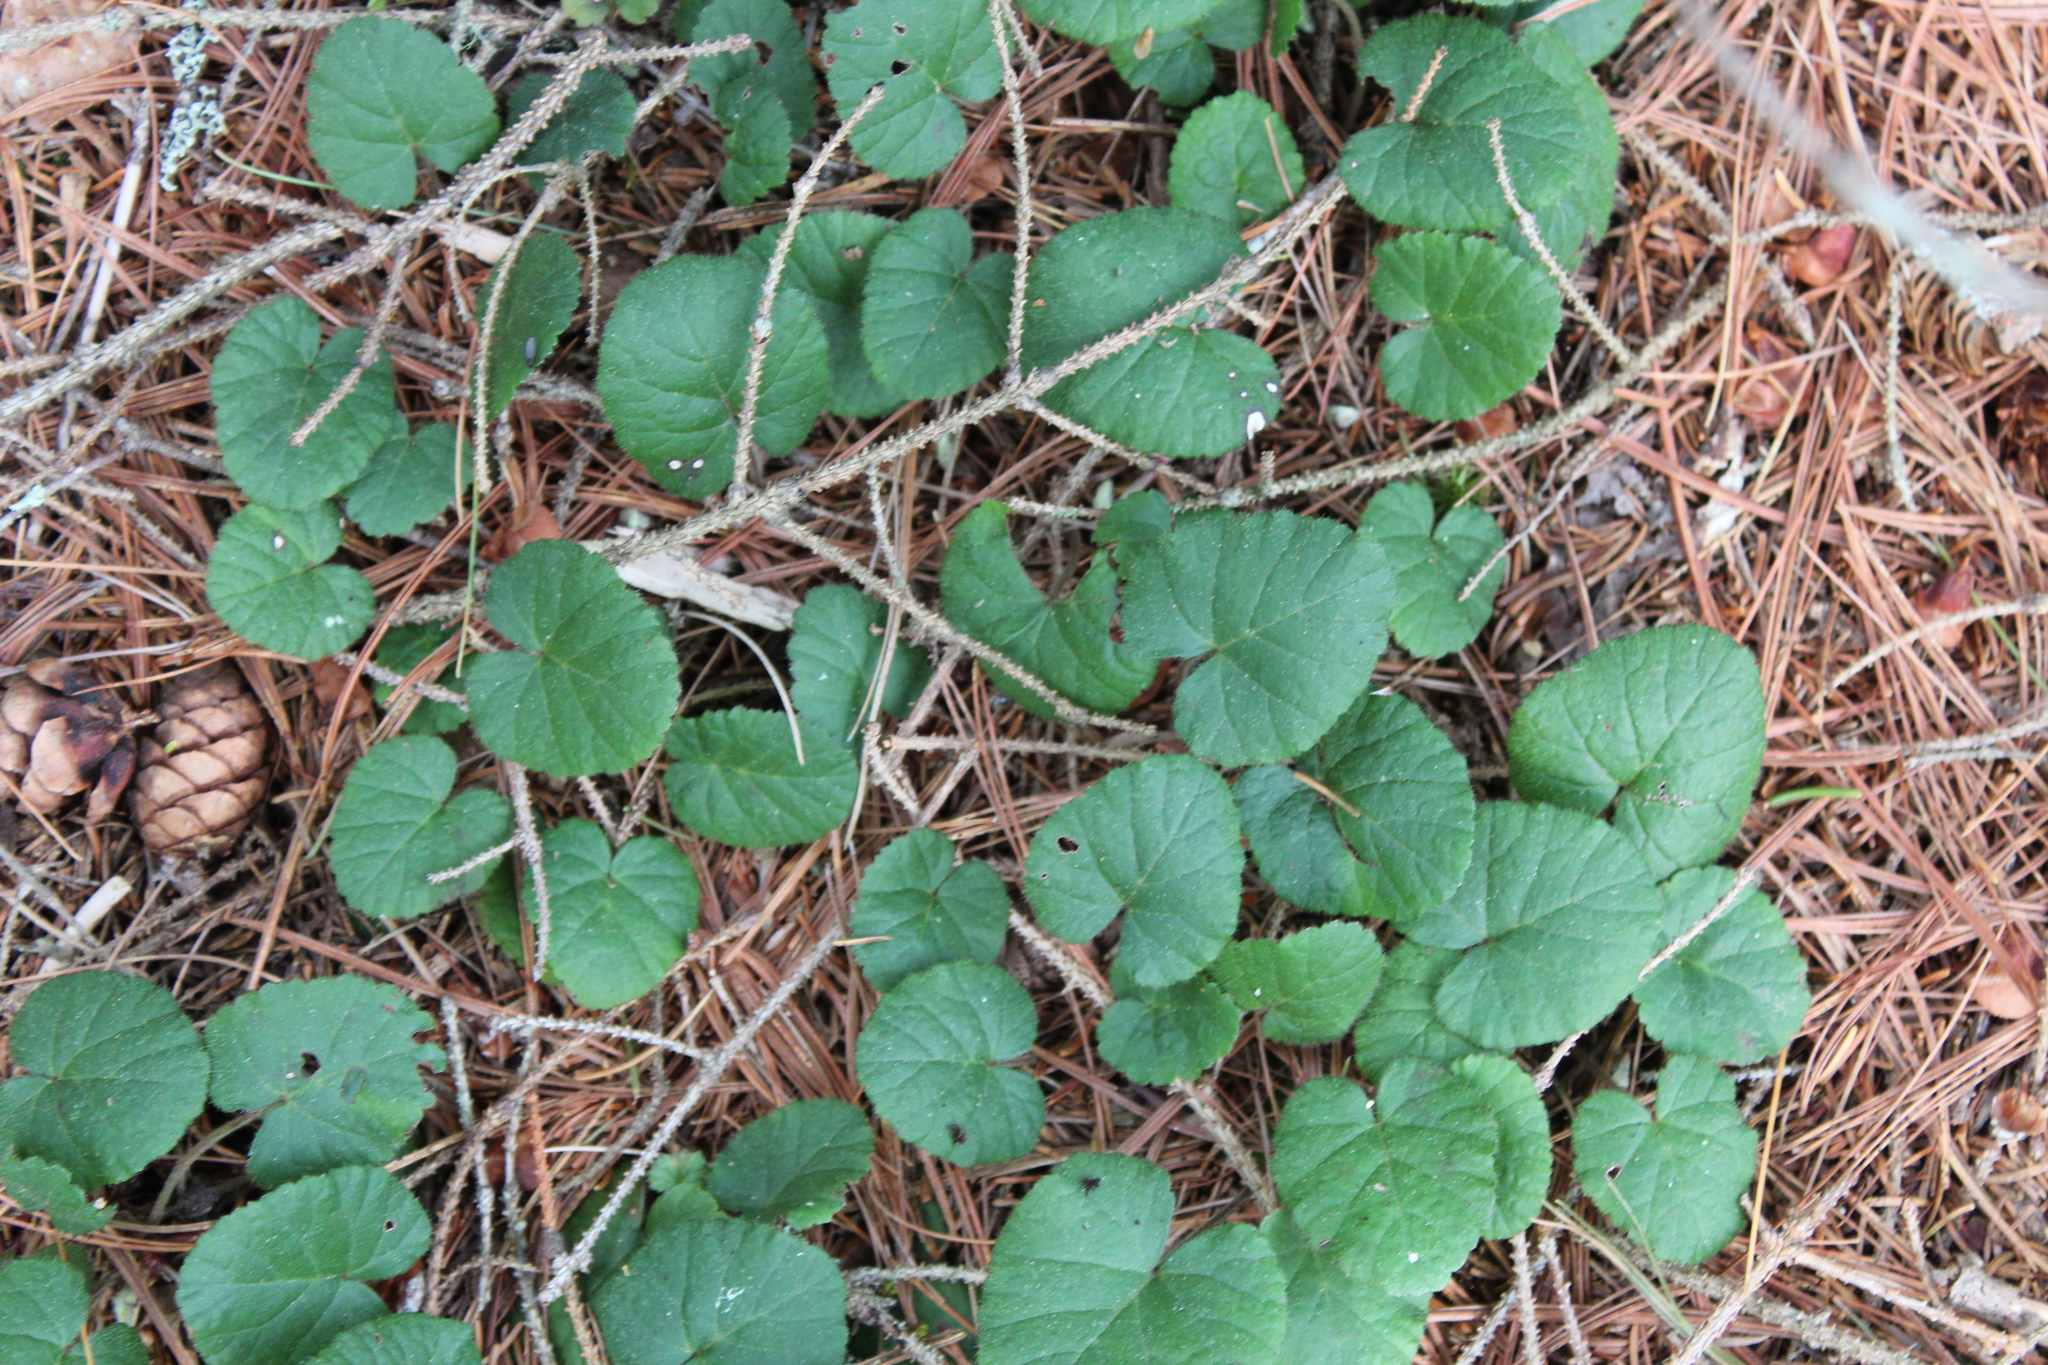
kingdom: Plantae
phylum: Tracheophyta
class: Magnoliopsida
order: Rosales
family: Rosaceae
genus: Dalibarda
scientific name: Dalibarda repens
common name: Dewdrop
